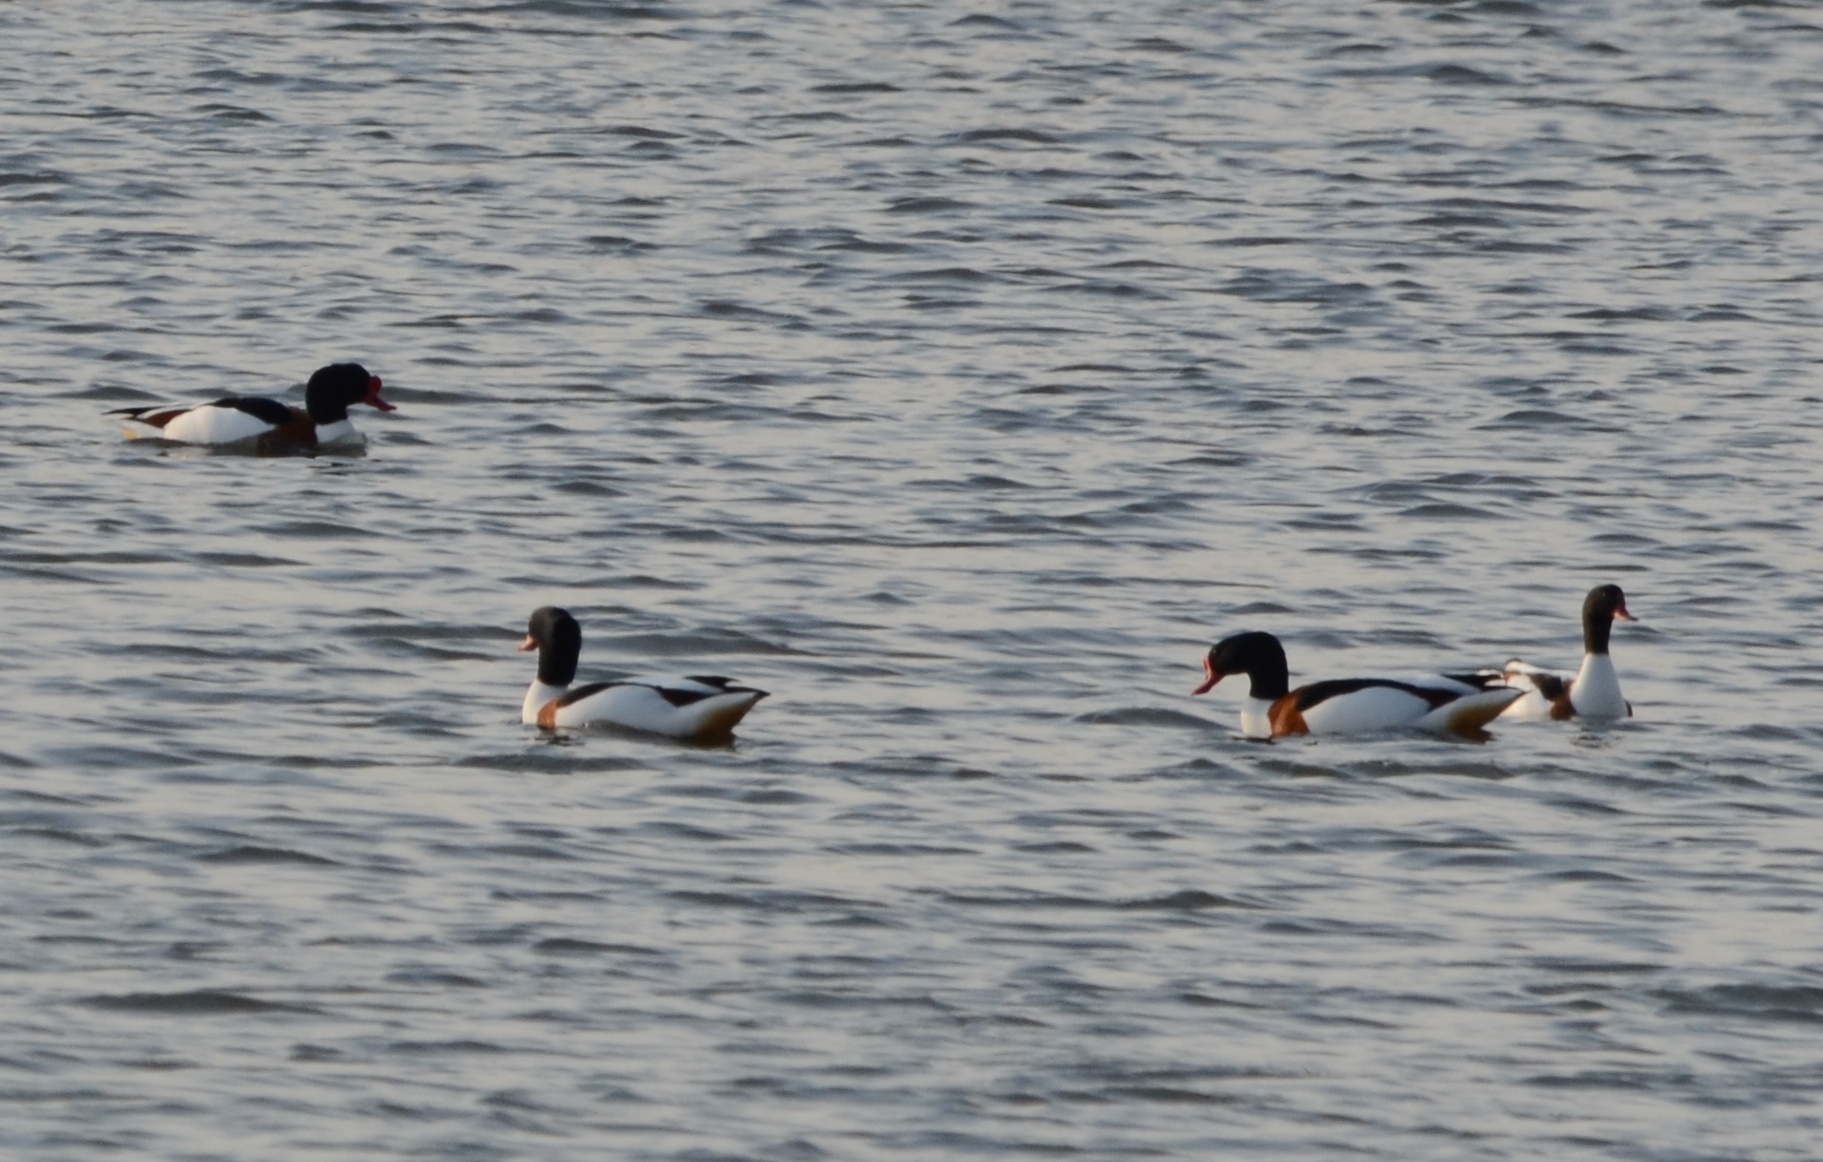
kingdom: Animalia
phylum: Chordata
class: Aves
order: Anseriformes
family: Anatidae
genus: Tadorna
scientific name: Tadorna tadorna
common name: Common shelduck
